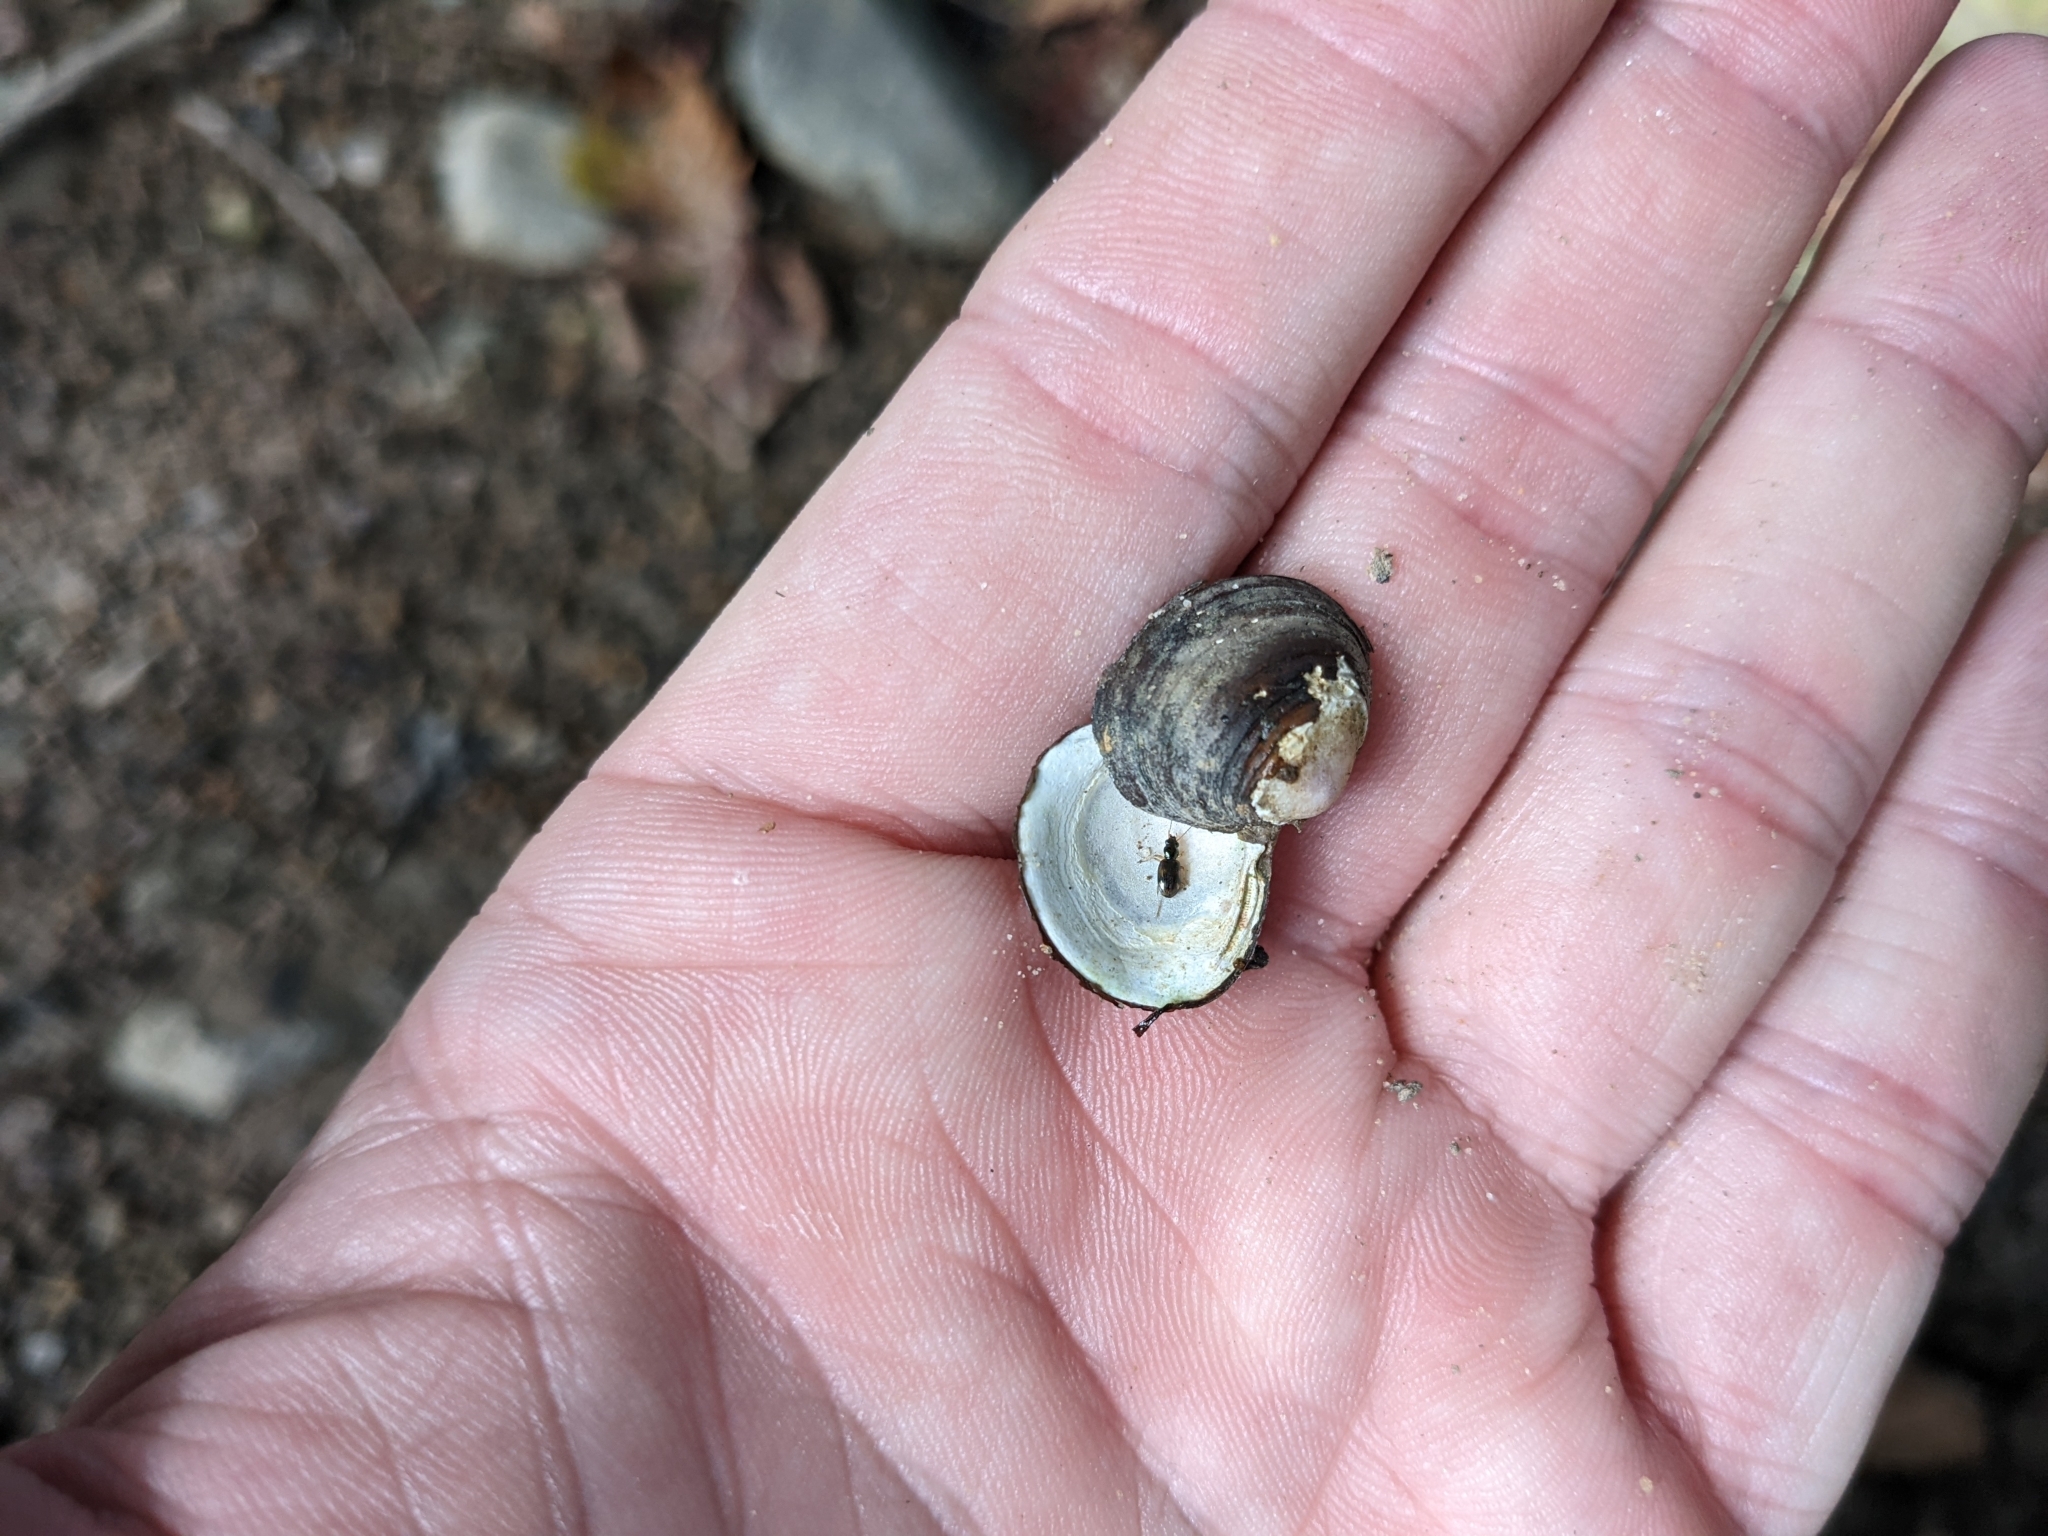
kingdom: Animalia
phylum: Mollusca
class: Bivalvia
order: Venerida
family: Cyrenidae
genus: Corbicula
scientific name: Corbicula fluminea
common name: Asian clam
